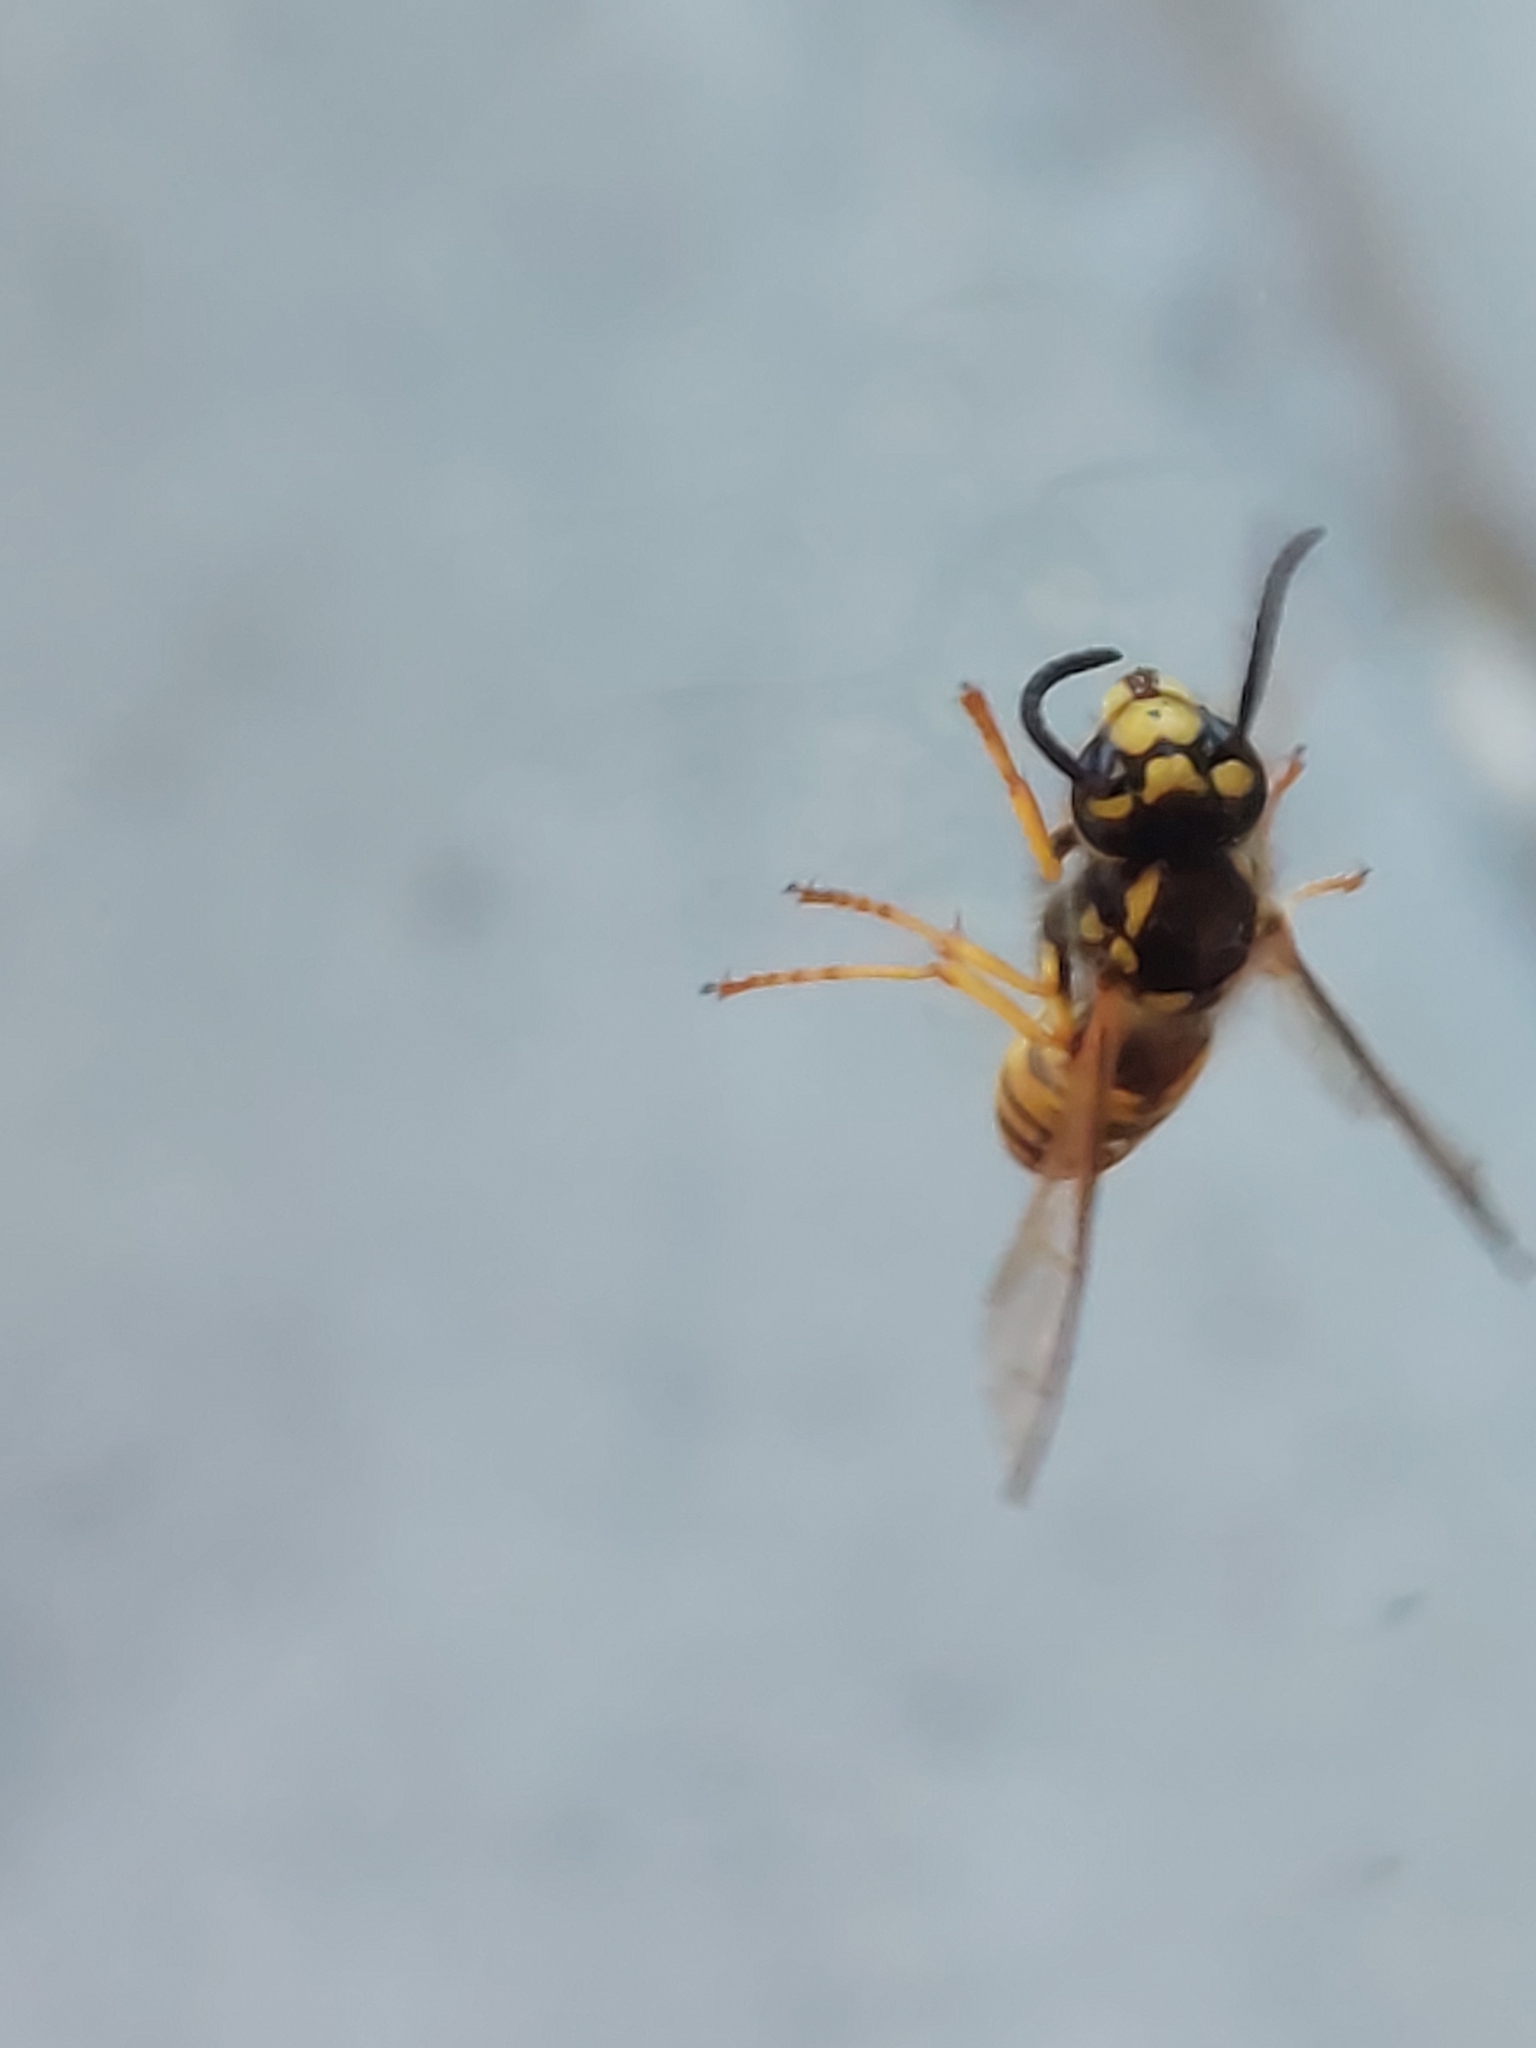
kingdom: Animalia
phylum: Arthropoda
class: Insecta
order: Hymenoptera
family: Vespidae
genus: Vespula
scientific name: Vespula germanica
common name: German wasp
